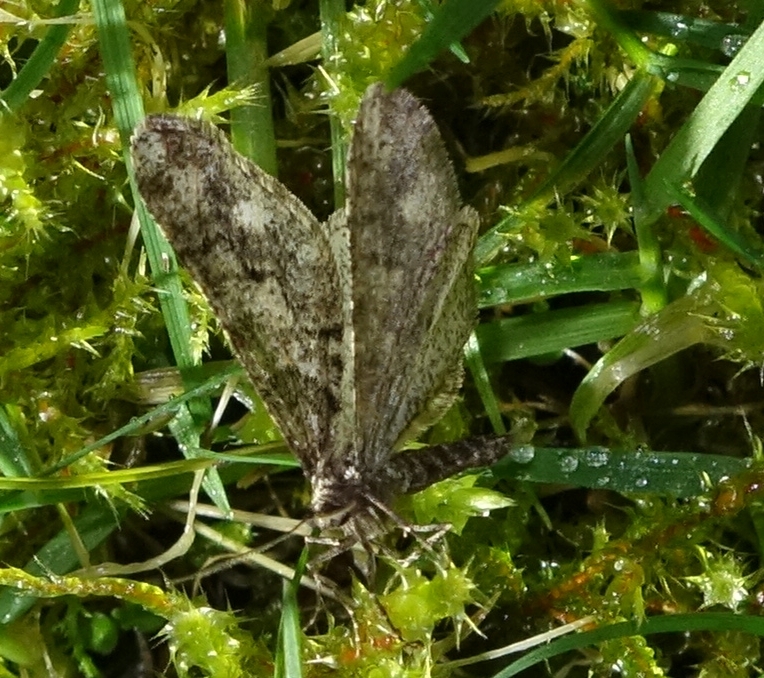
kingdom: Animalia
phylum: Arthropoda
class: Insecta
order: Lepidoptera
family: Geometridae
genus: Agriopis
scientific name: Agriopis leucophaearia
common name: Spring usher
